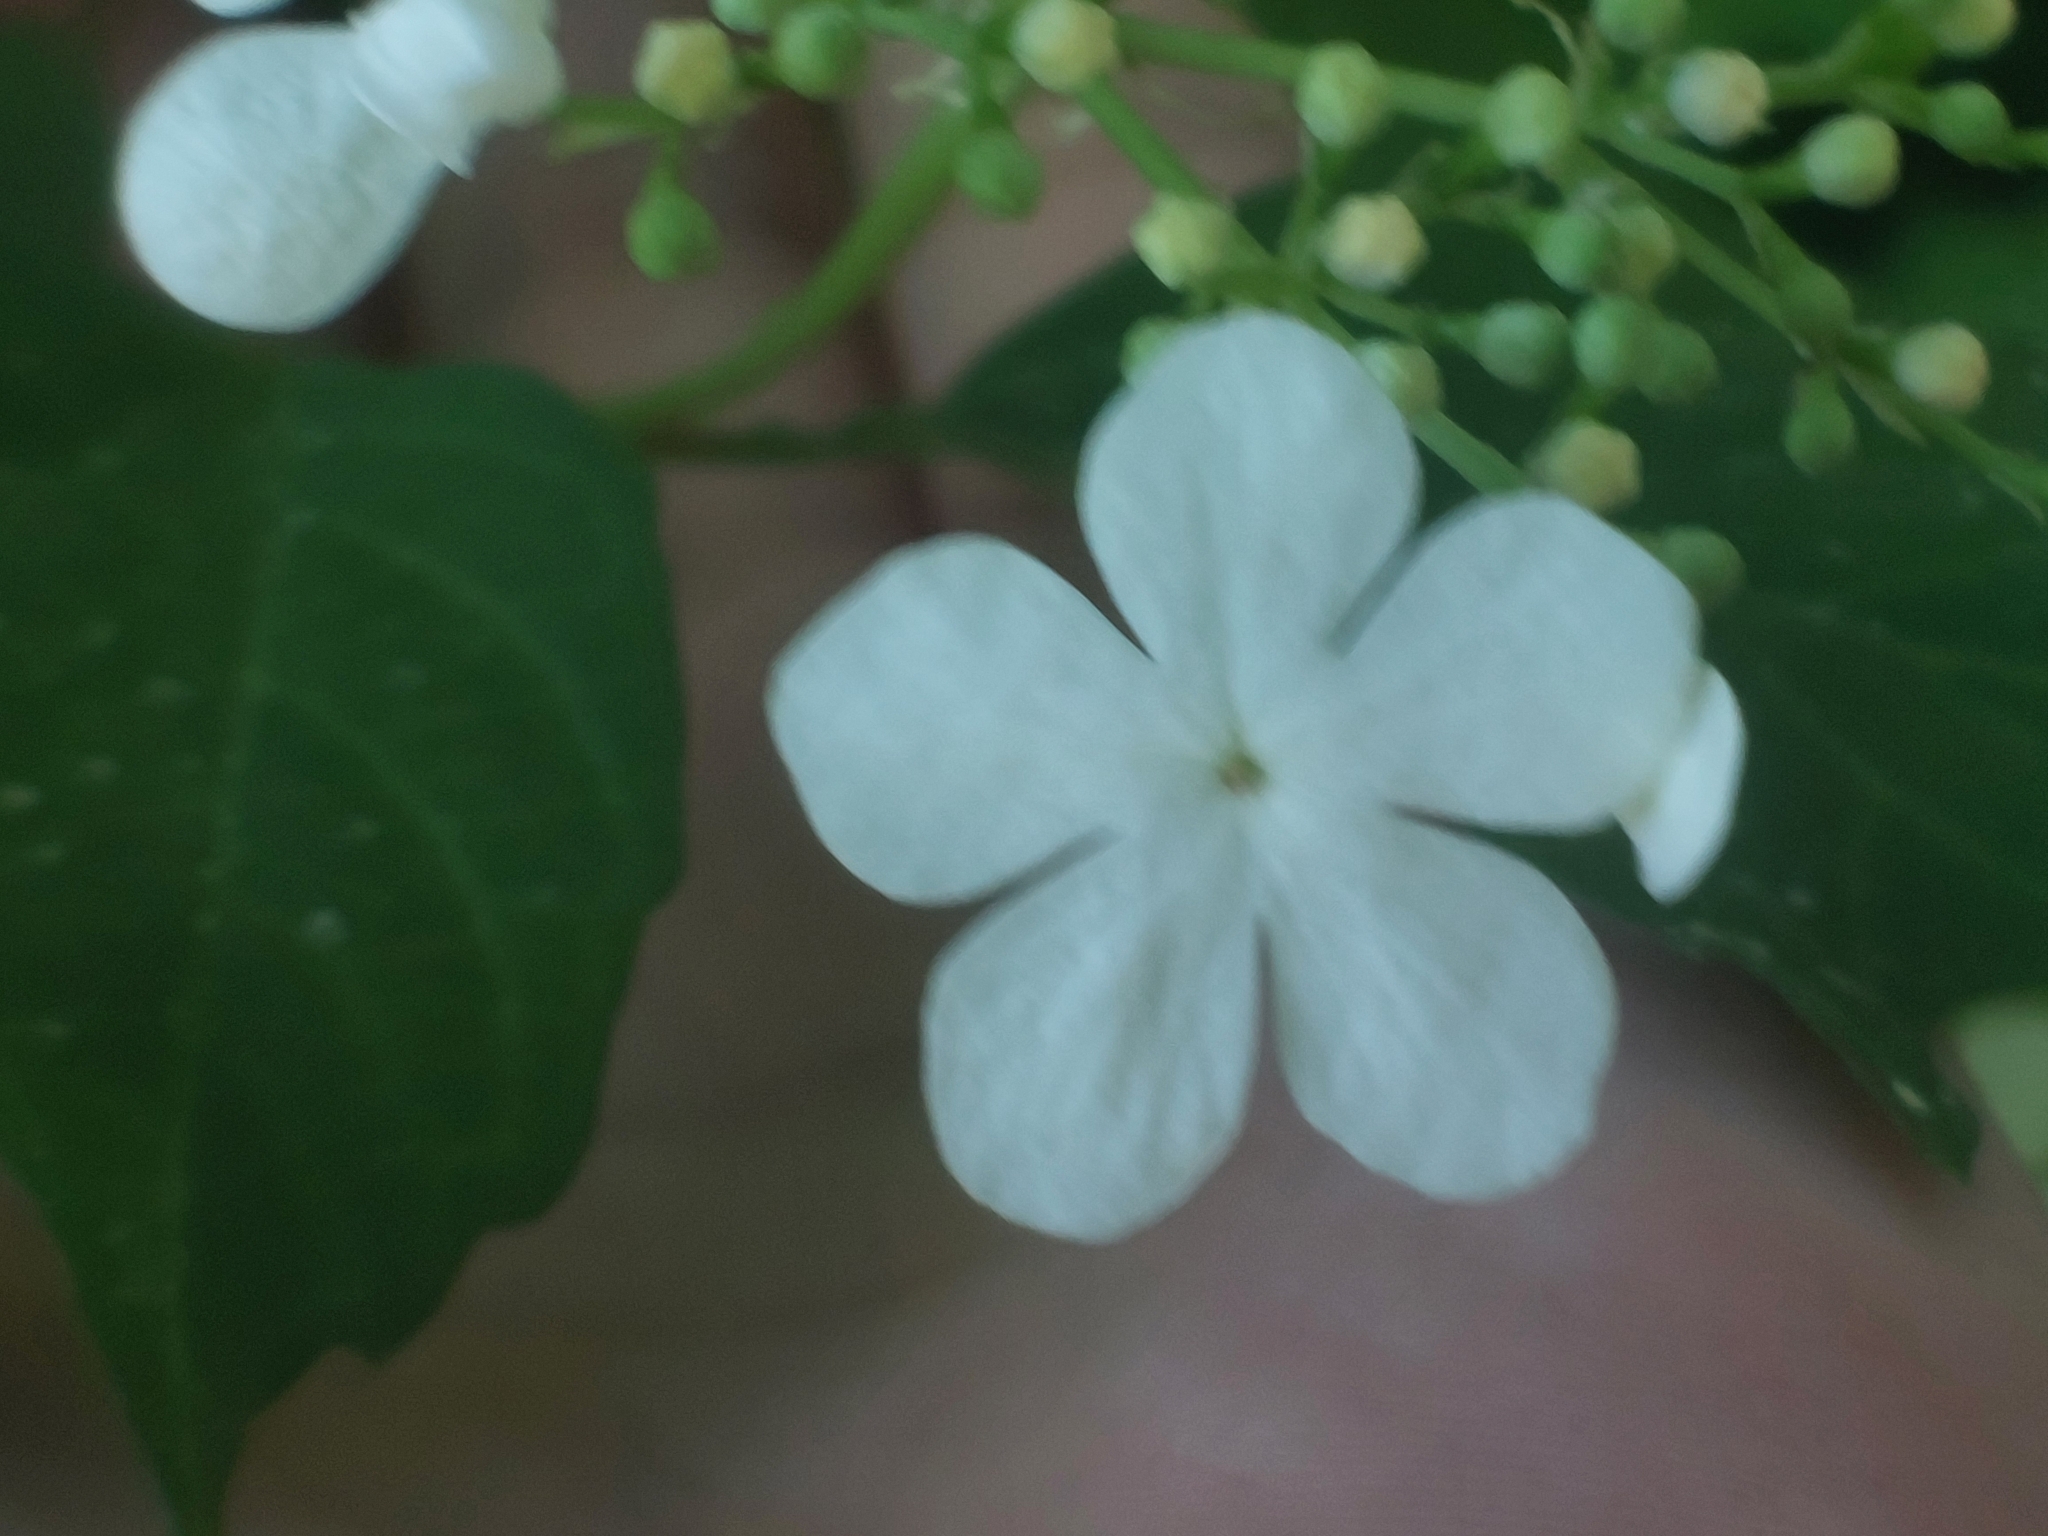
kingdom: Plantae
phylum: Tracheophyta
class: Magnoliopsida
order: Dipsacales
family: Viburnaceae
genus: Viburnum
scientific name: Viburnum opulus
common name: Guelder-rose
